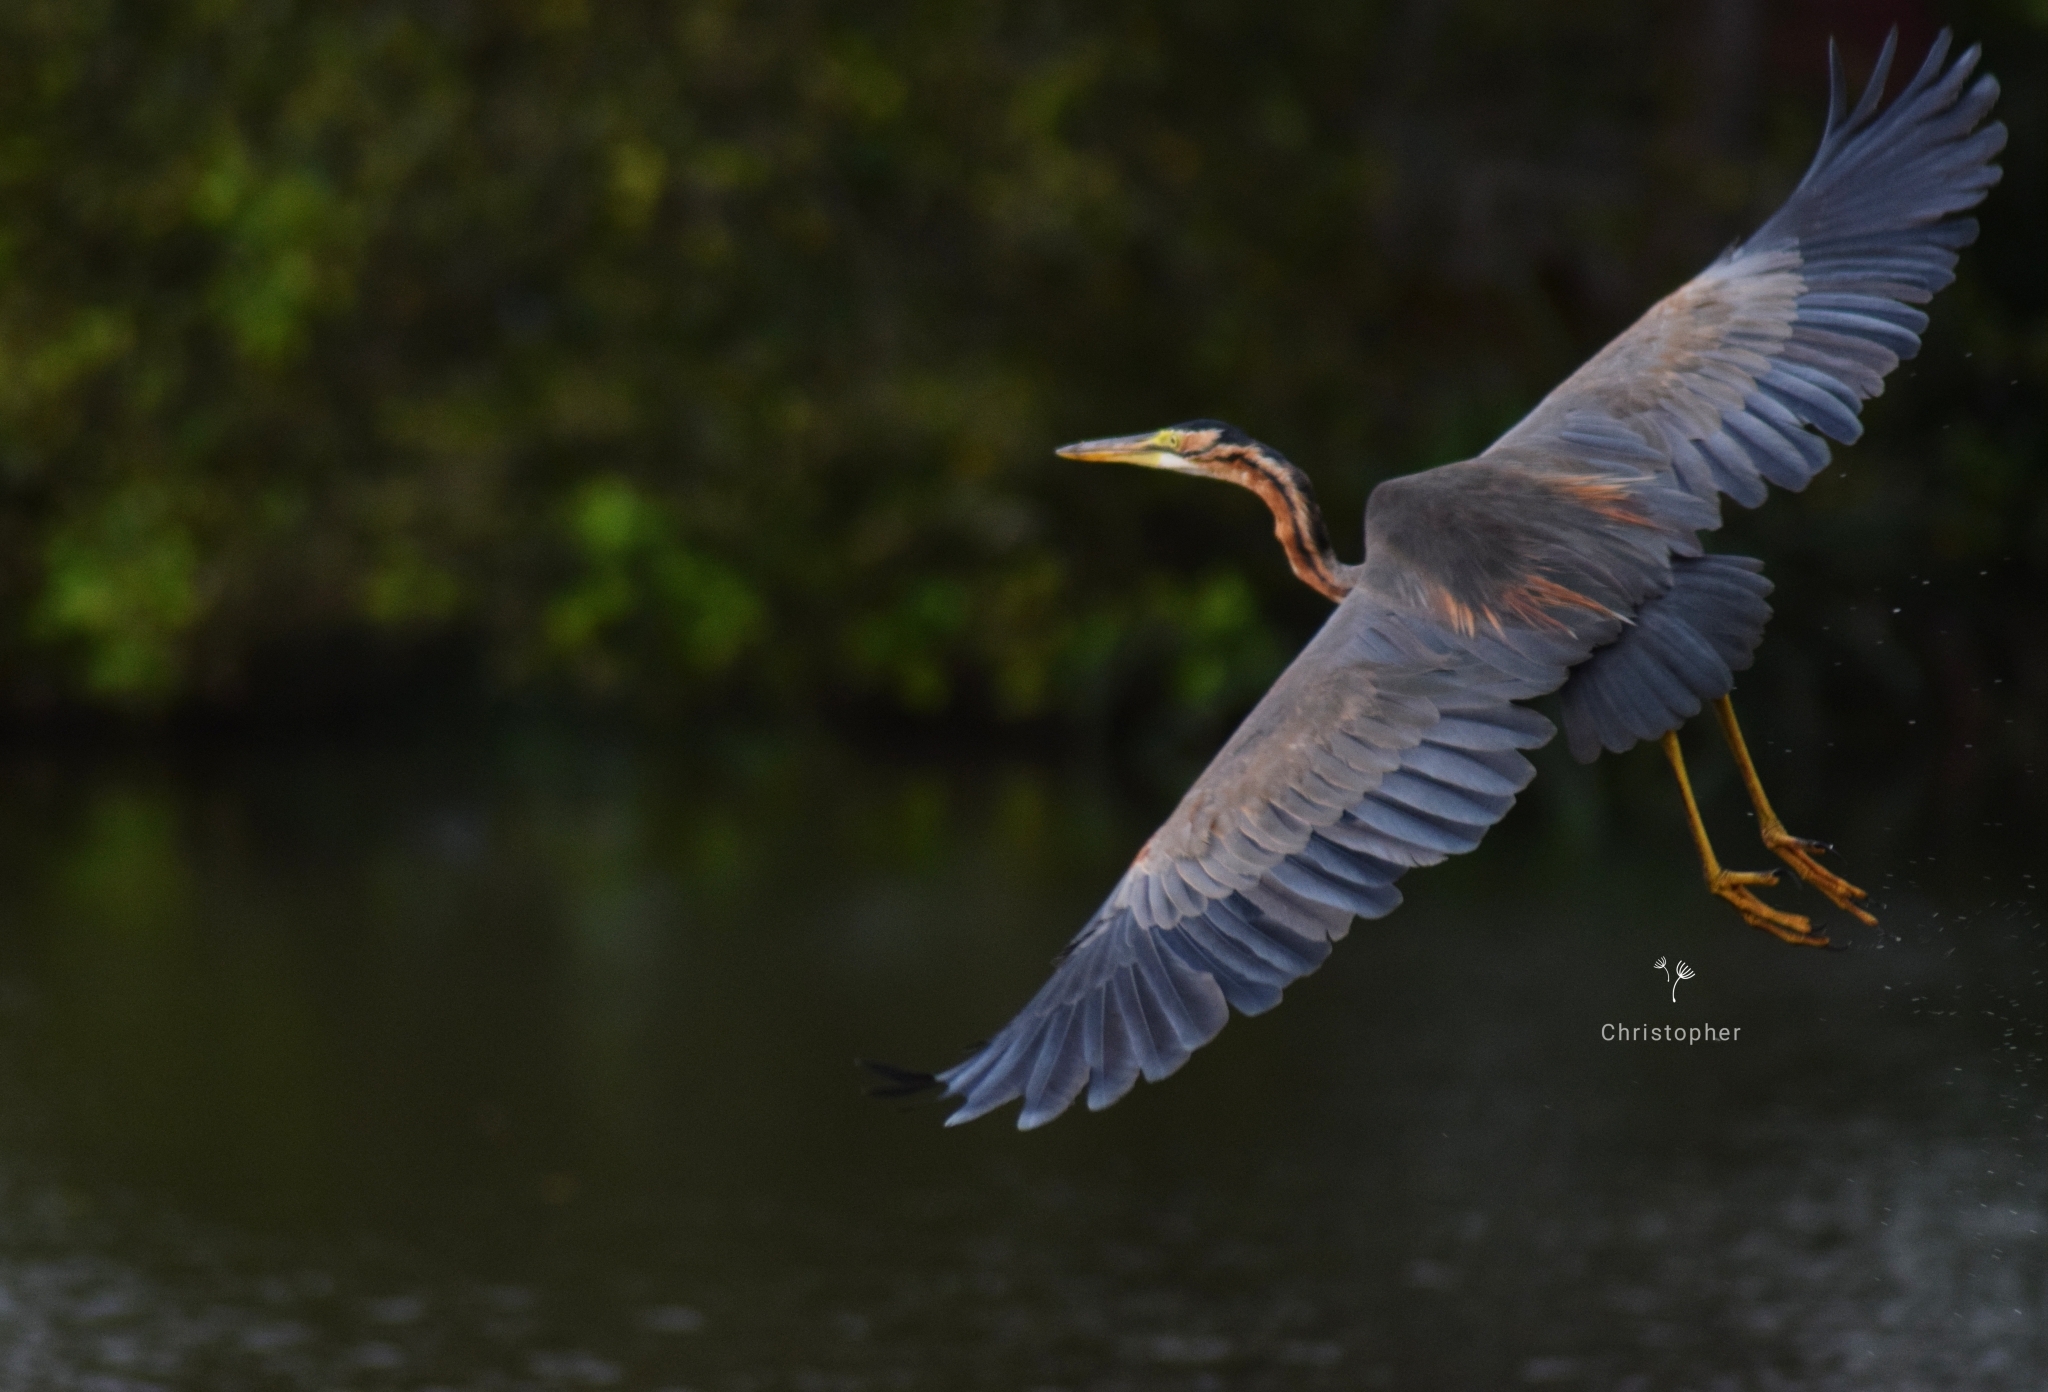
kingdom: Animalia
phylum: Chordata
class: Aves
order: Pelecaniformes
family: Ardeidae
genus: Ardea
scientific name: Ardea purpurea
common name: Purple heron
